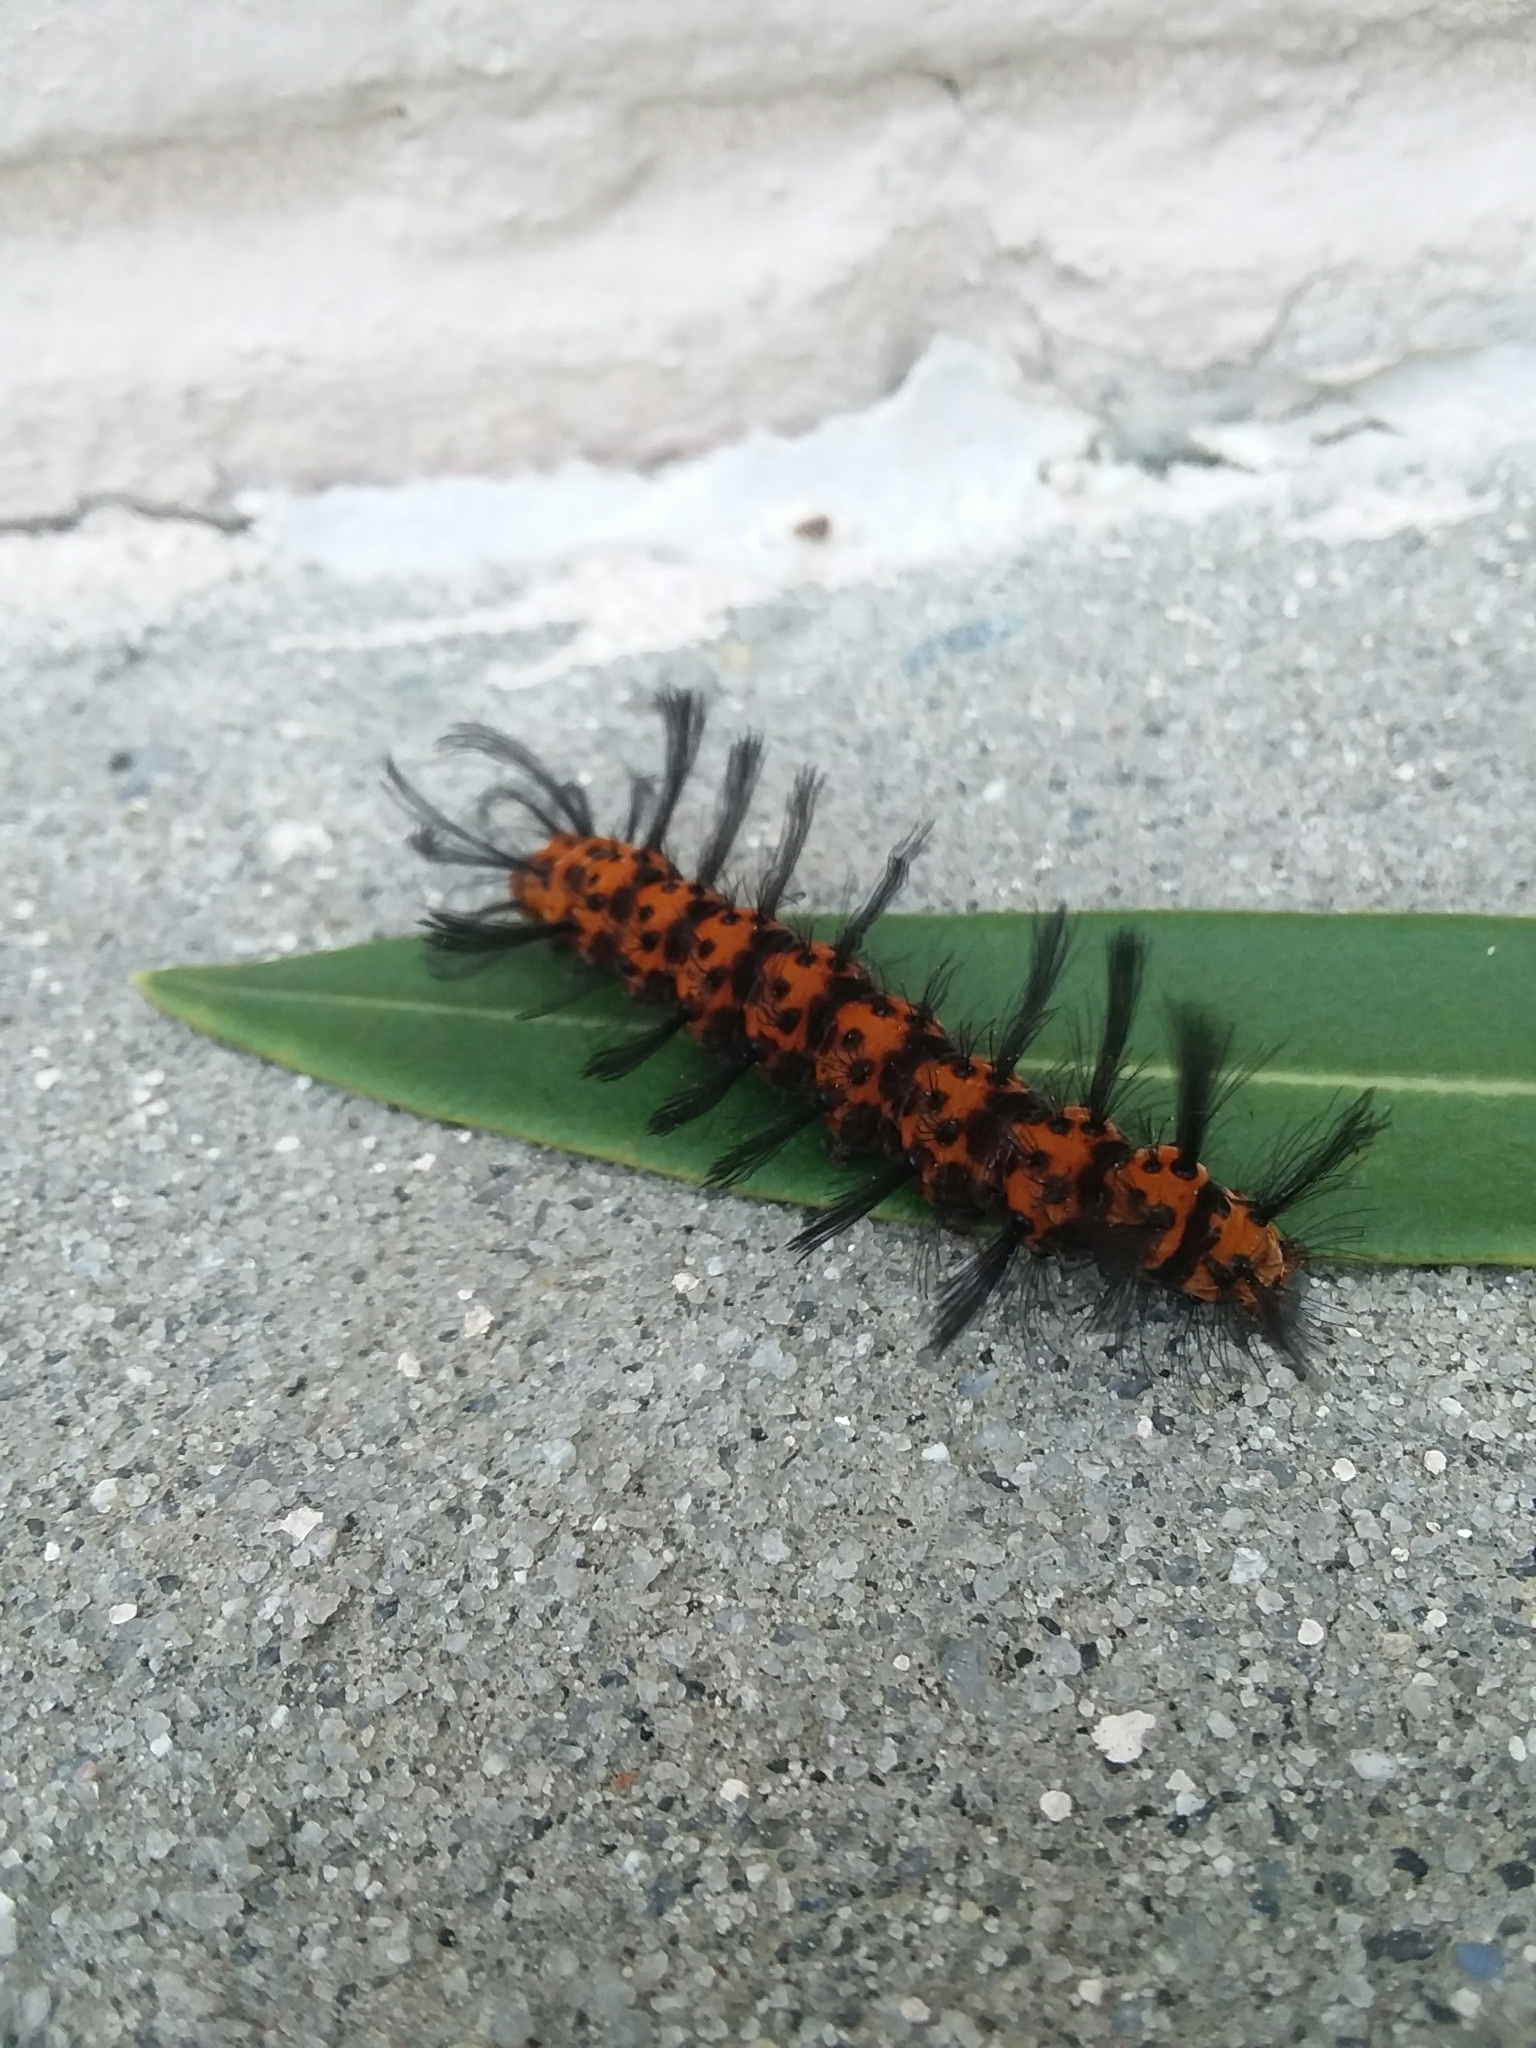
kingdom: Animalia
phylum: Arthropoda
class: Insecta
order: Lepidoptera
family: Erebidae
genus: Syntomeida
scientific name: Syntomeida epilais
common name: Polka-dot wasp moth
